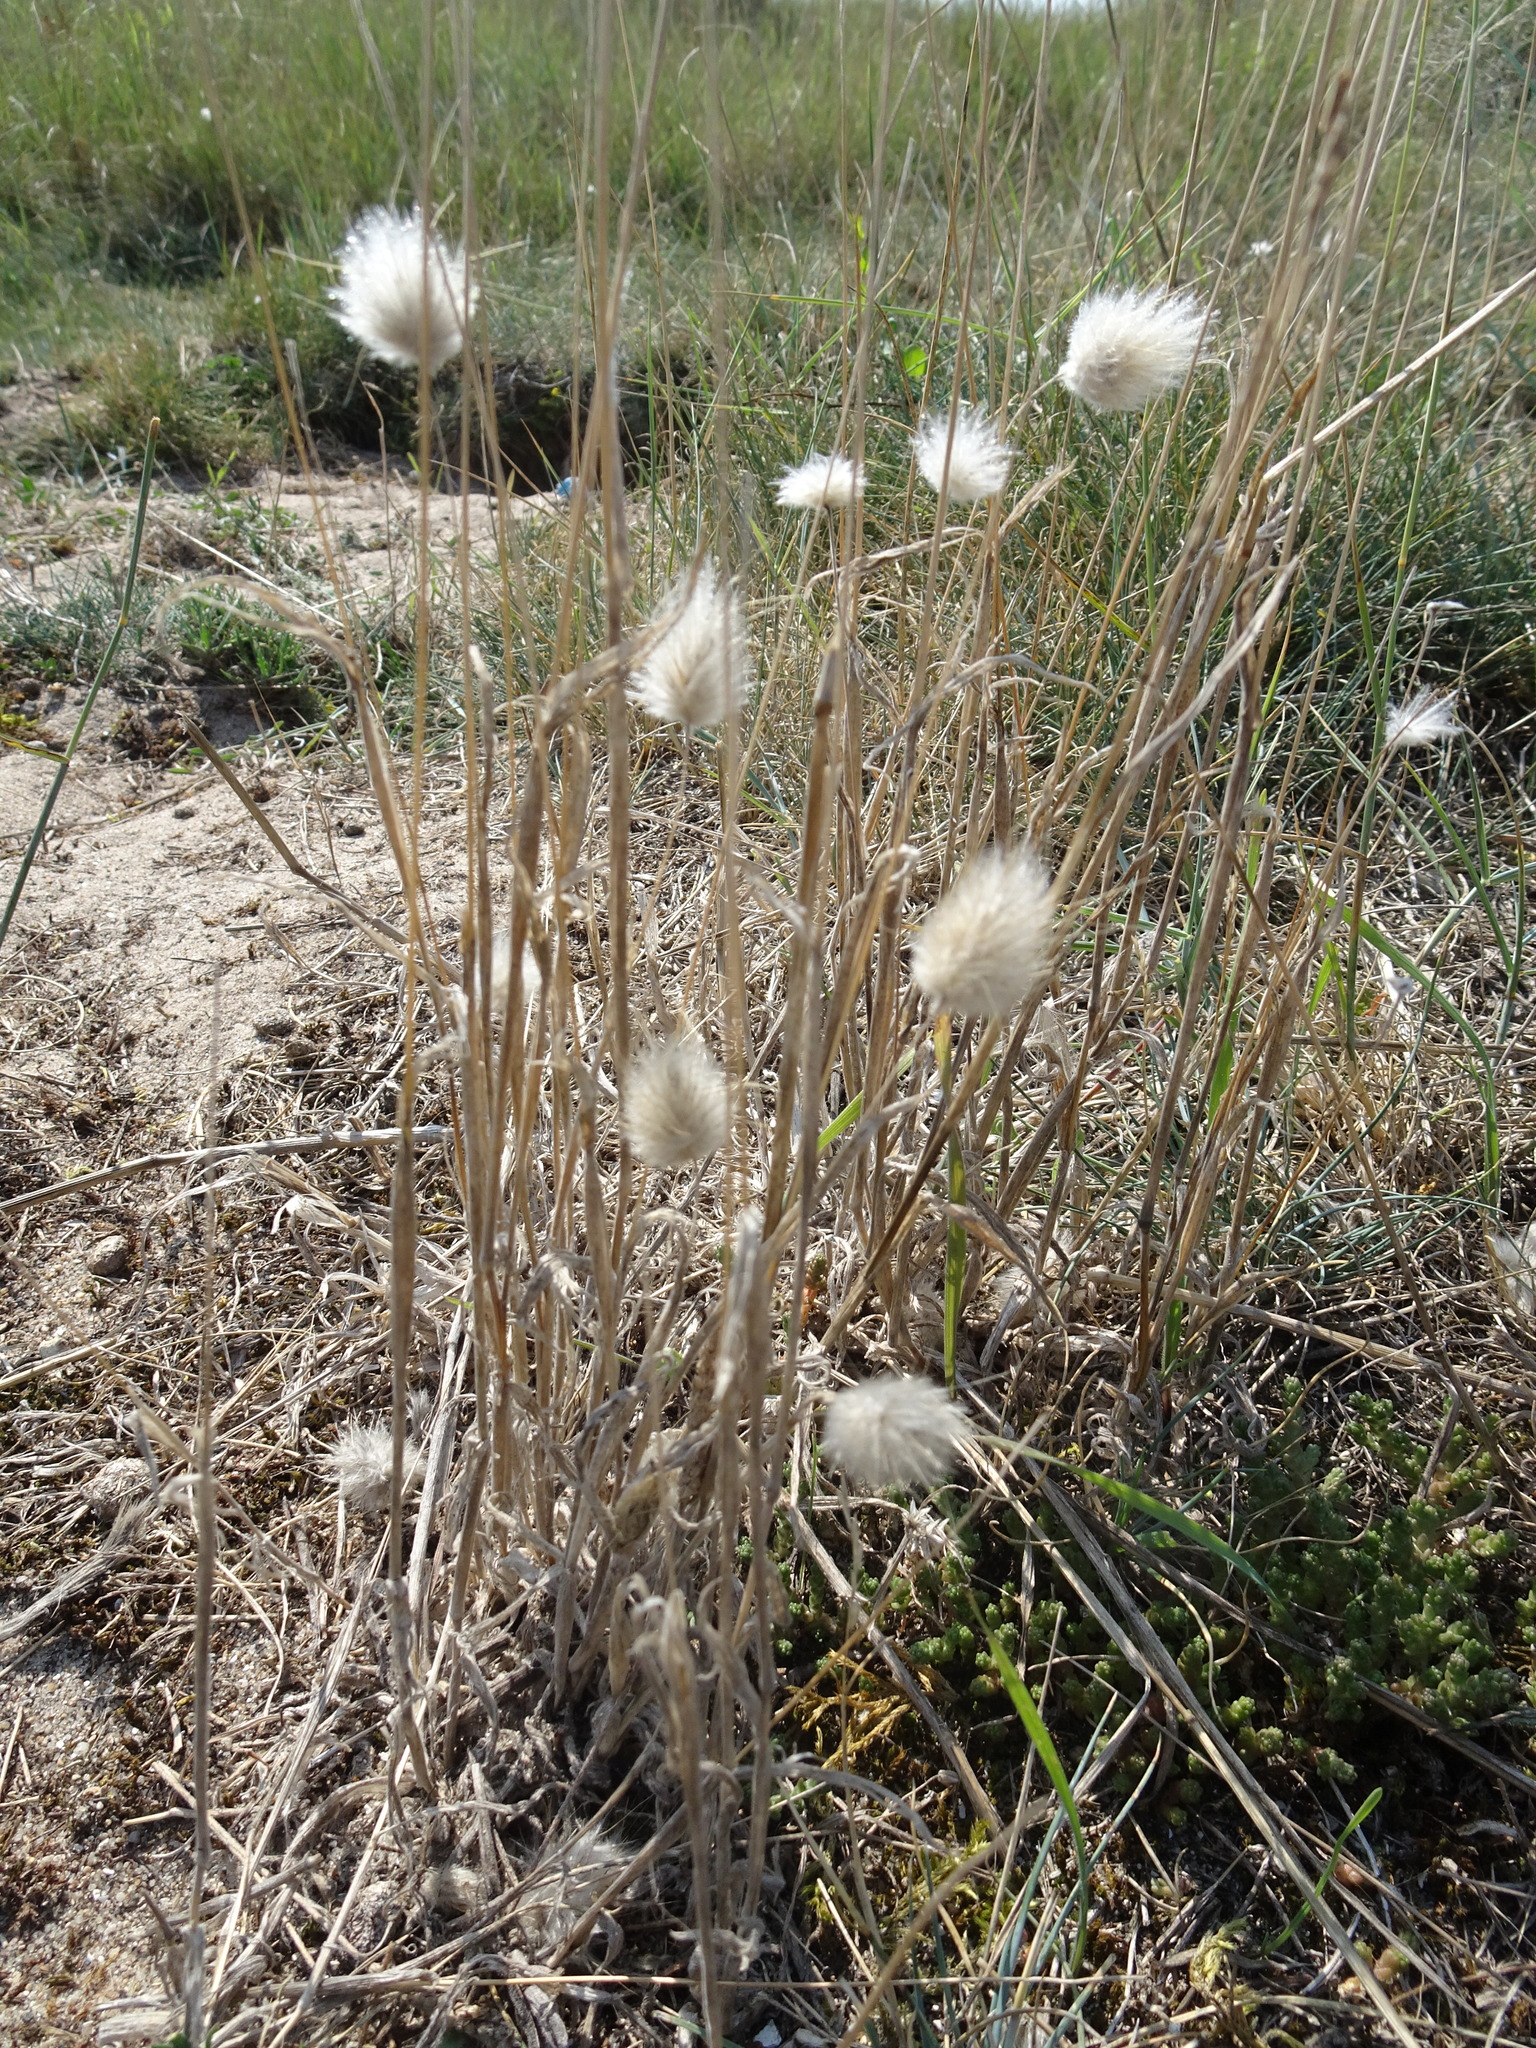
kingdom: Plantae
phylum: Tracheophyta
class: Liliopsida
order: Poales
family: Poaceae
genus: Lagurus
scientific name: Lagurus ovatus
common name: Hare's-tail
